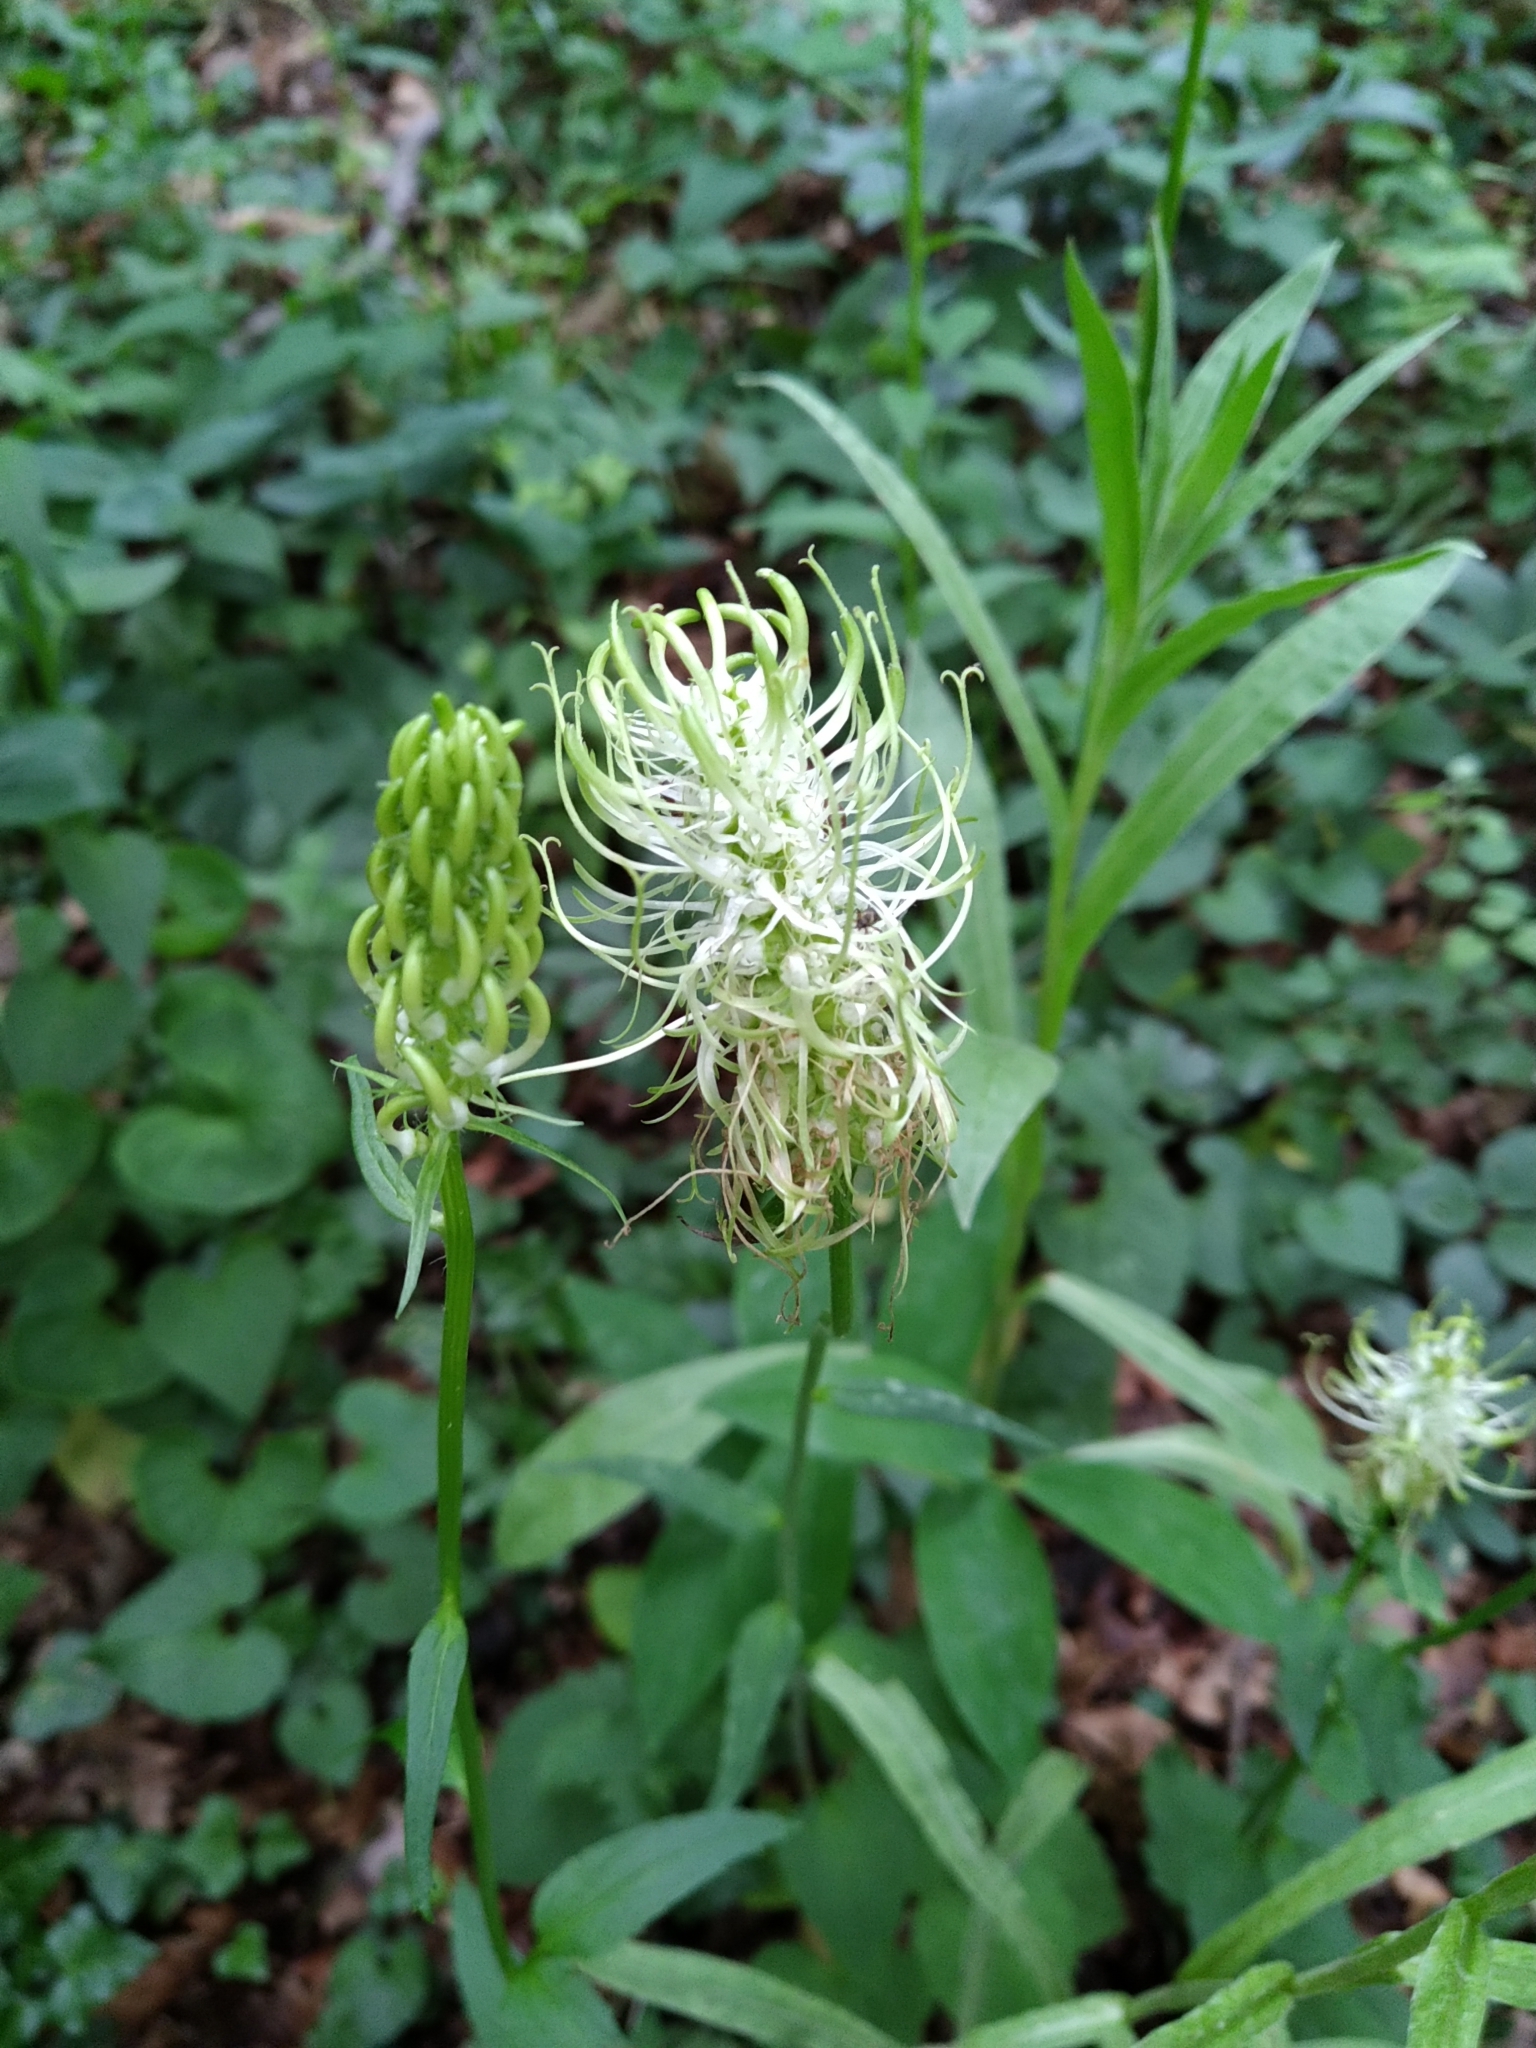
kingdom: Plantae
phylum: Tracheophyta
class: Magnoliopsida
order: Asterales
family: Campanulaceae
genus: Phyteuma
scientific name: Phyteuma spicatum
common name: Spiked rampion
